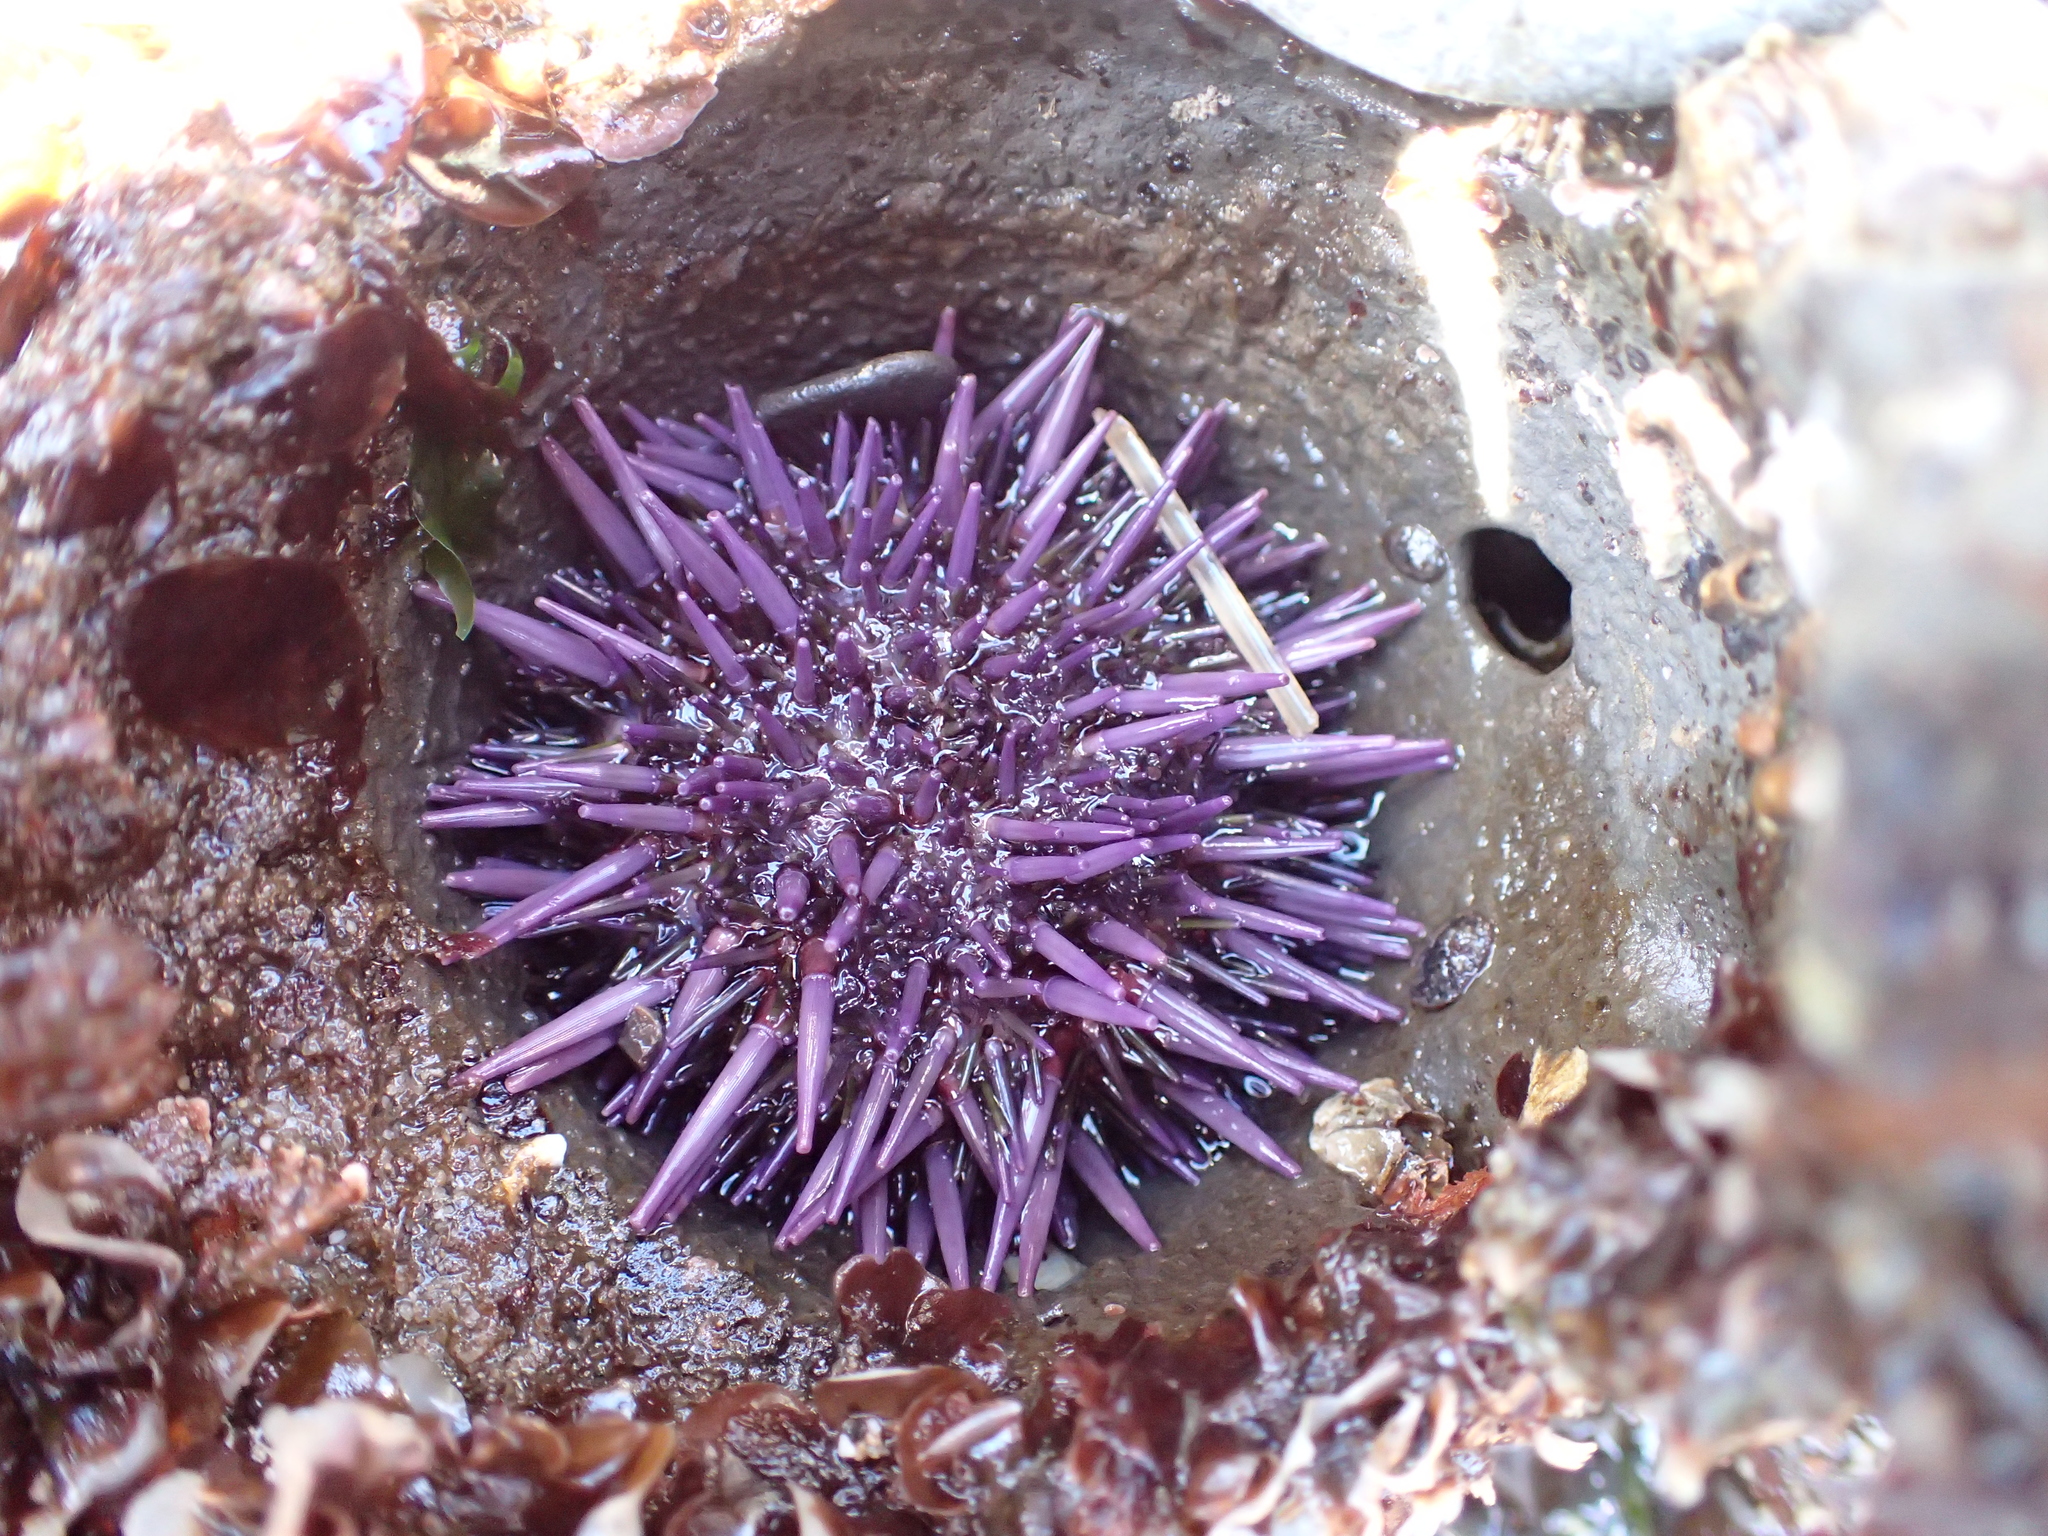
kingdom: Animalia
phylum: Echinodermata
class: Echinoidea
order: Camarodonta
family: Strongylocentrotidae
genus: Strongylocentrotus
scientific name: Strongylocentrotus purpuratus
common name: Purple sea urchin
